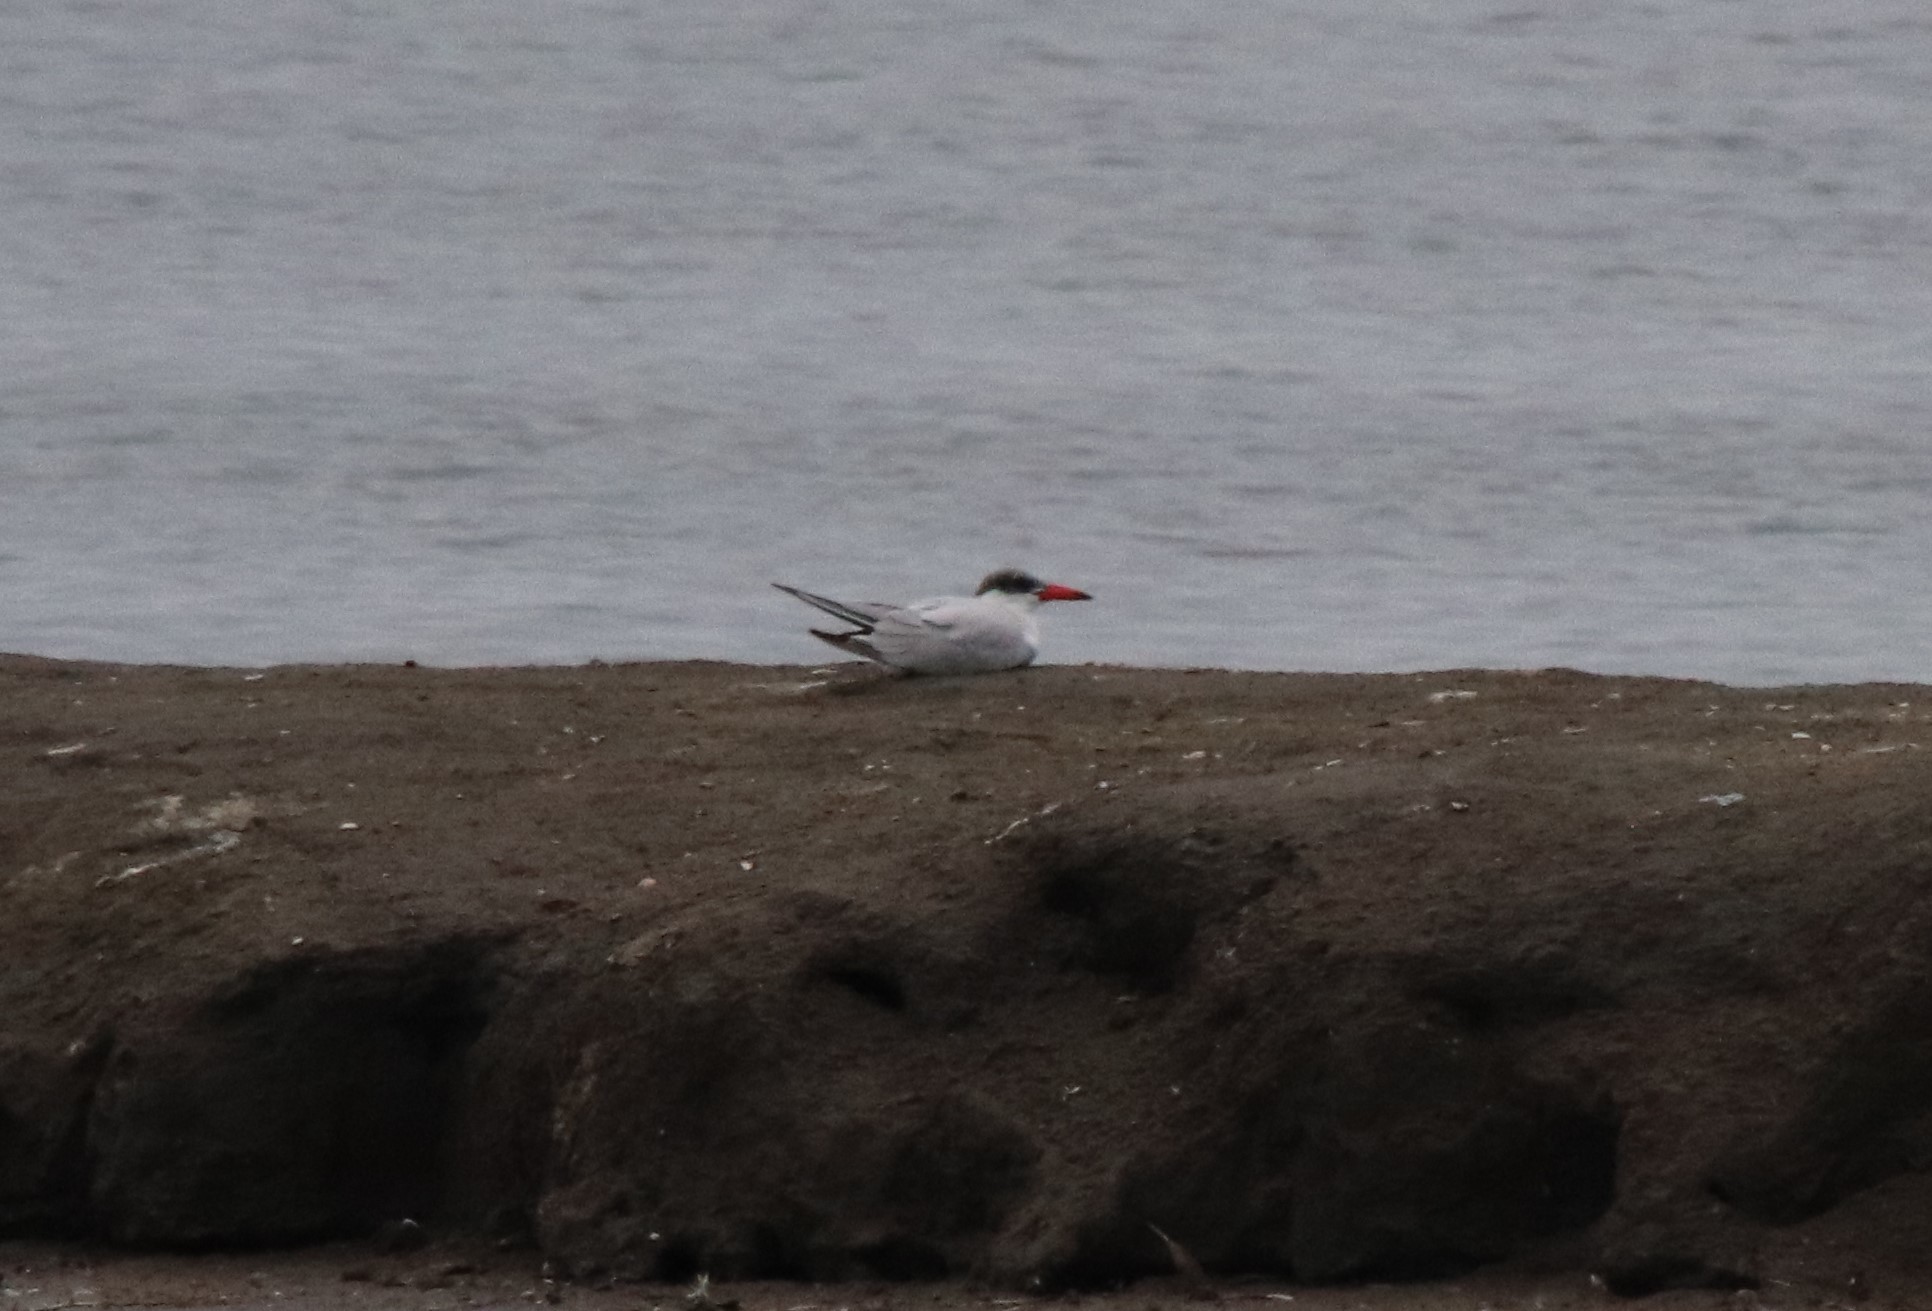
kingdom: Animalia
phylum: Chordata
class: Aves
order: Charadriiformes
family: Laridae
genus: Hydroprogne
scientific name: Hydroprogne caspia
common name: Caspian tern
